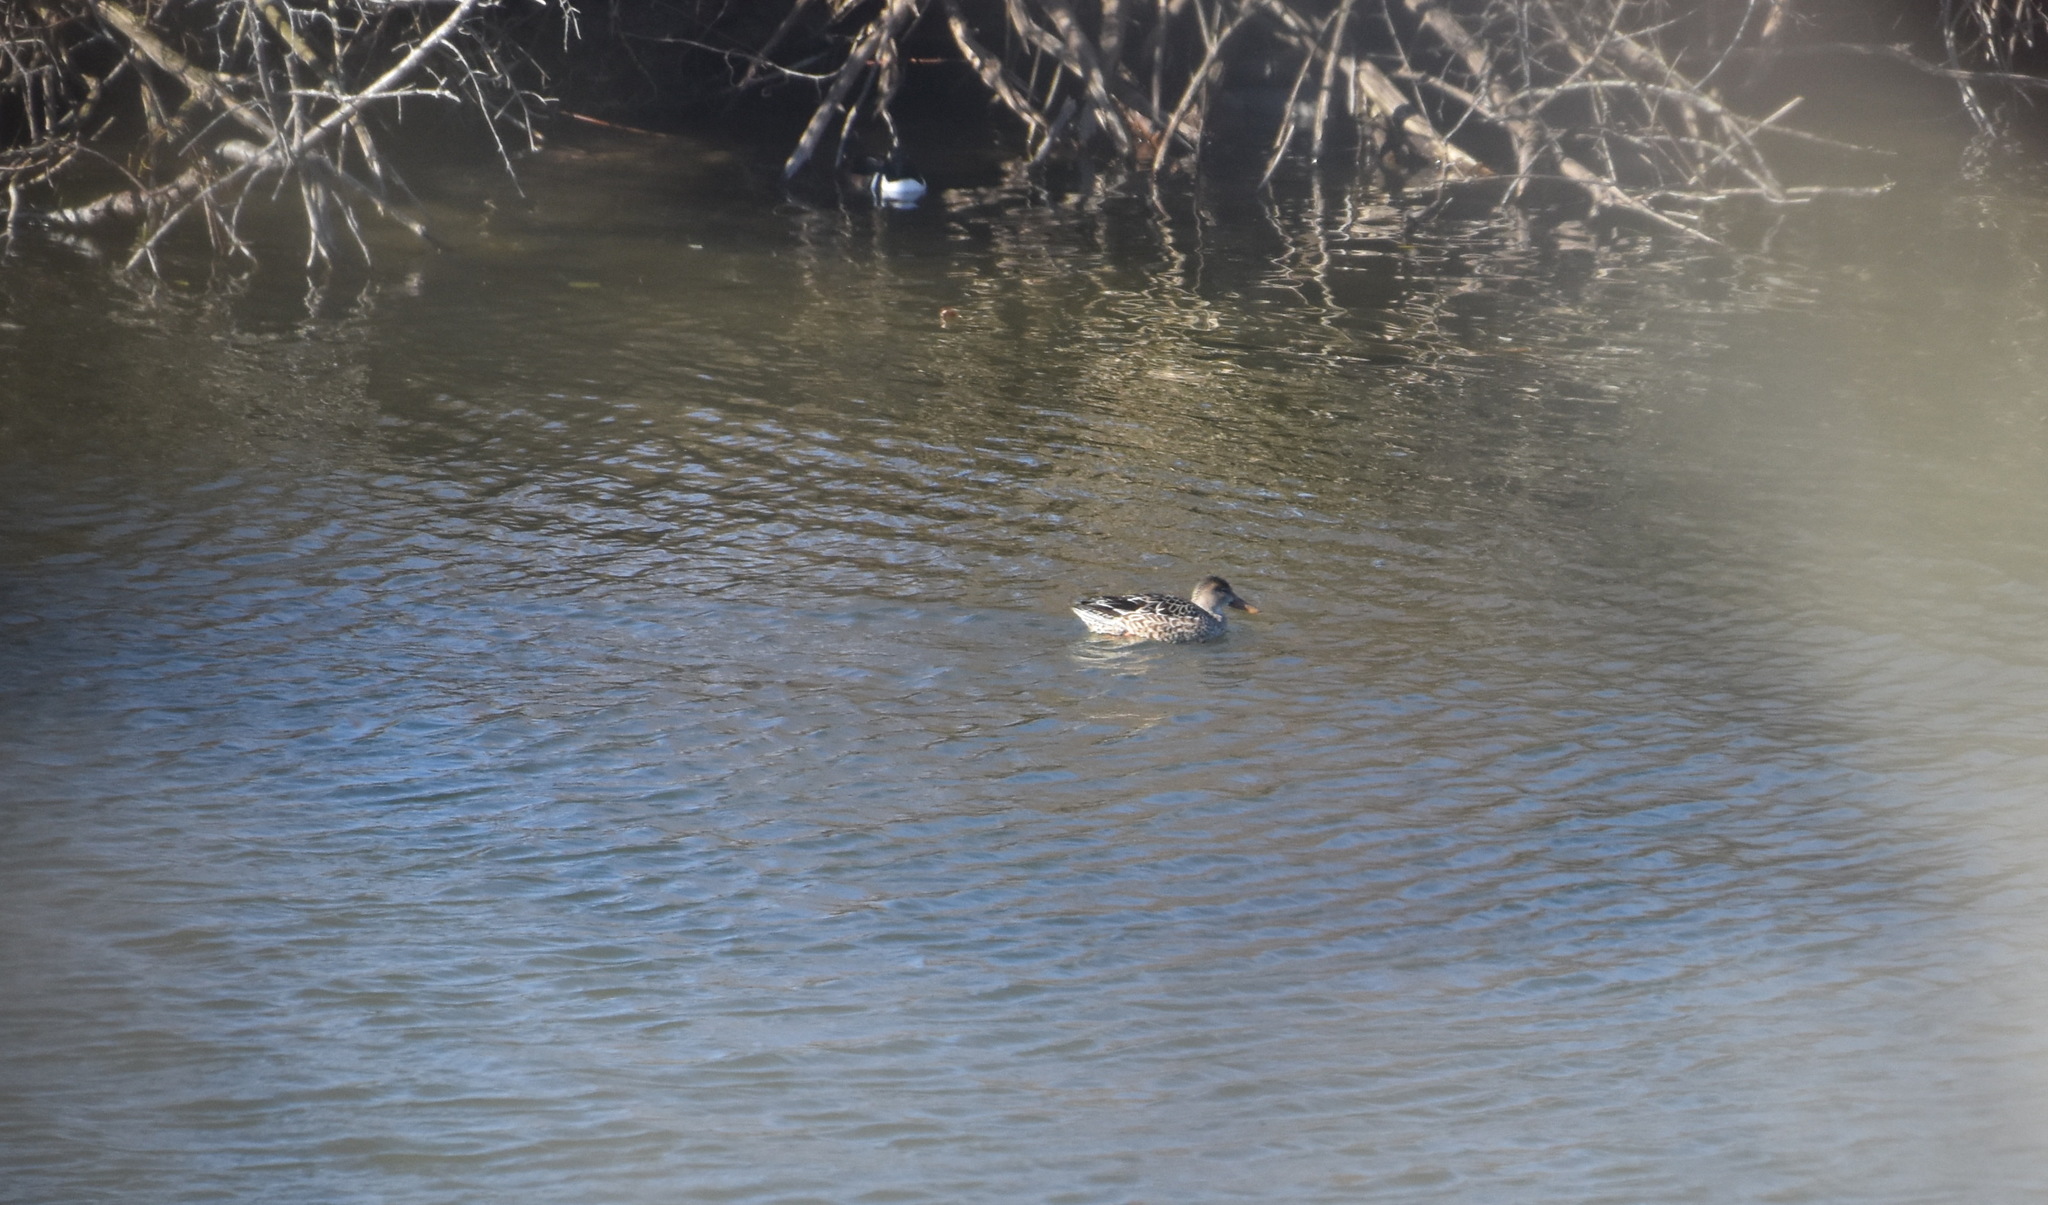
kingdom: Animalia
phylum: Chordata
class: Aves
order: Anseriformes
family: Anatidae
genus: Spatula
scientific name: Spatula clypeata
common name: Northern shoveler
